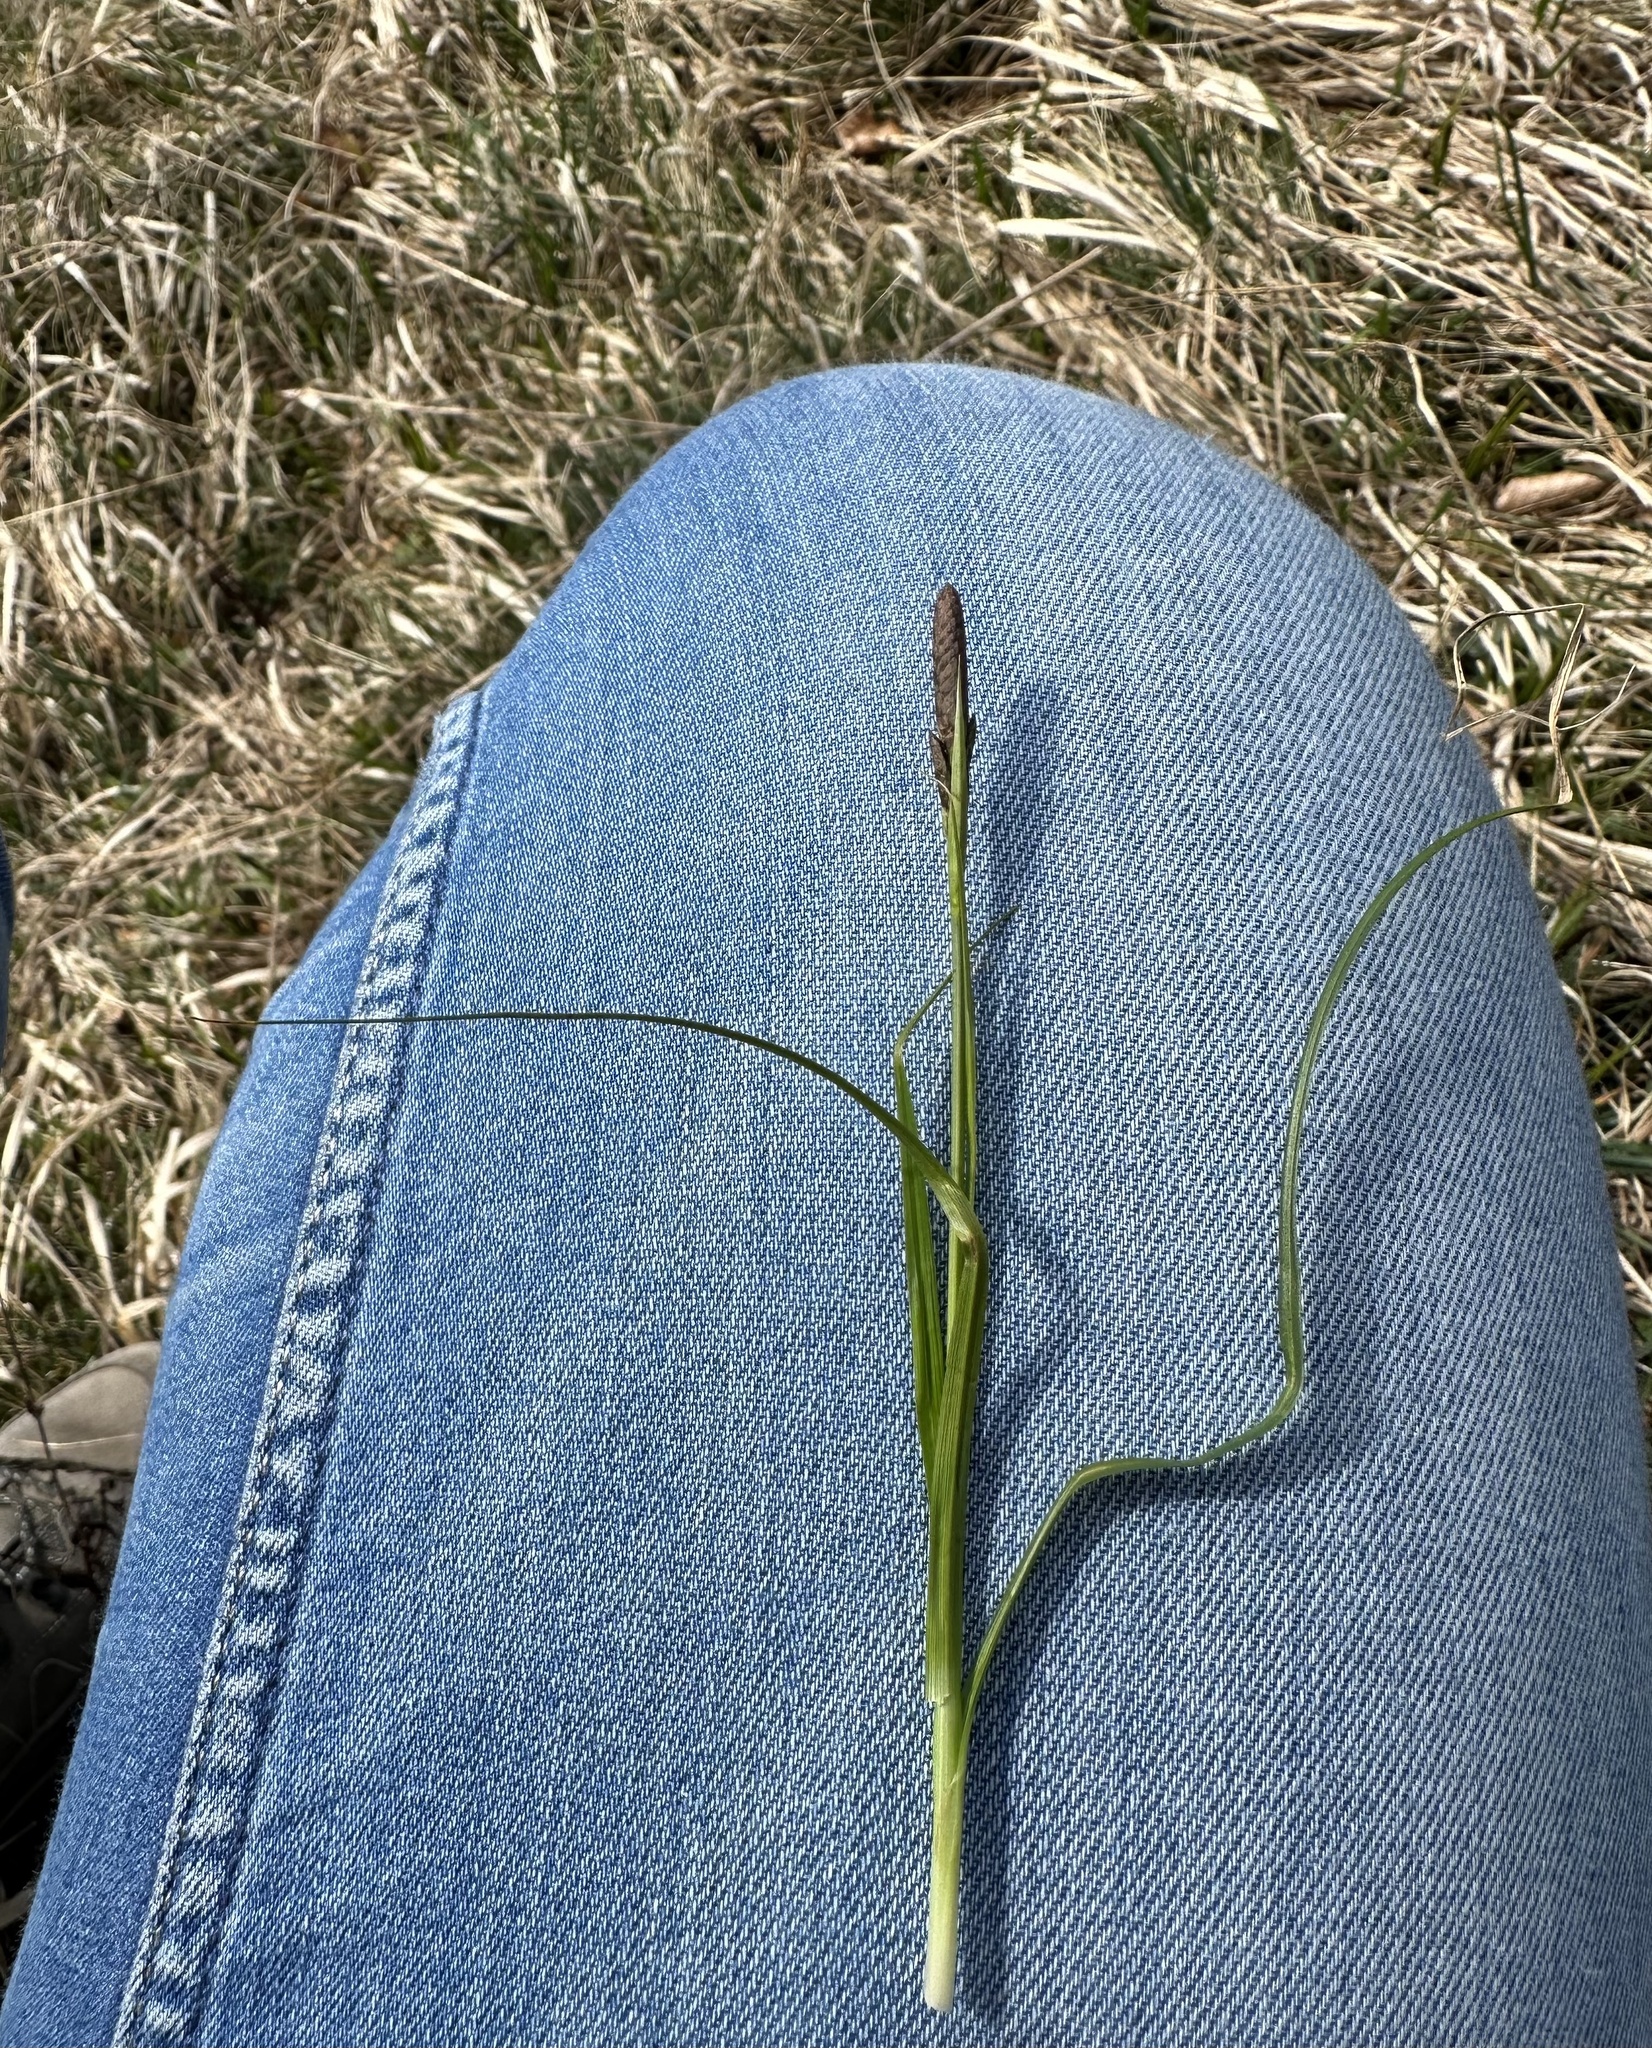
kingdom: Plantae
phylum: Tracheophyta
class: Liliopsida
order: Poales
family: Cyperaceae
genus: Carex
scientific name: Carex caryophyllea
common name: Spring sedge
